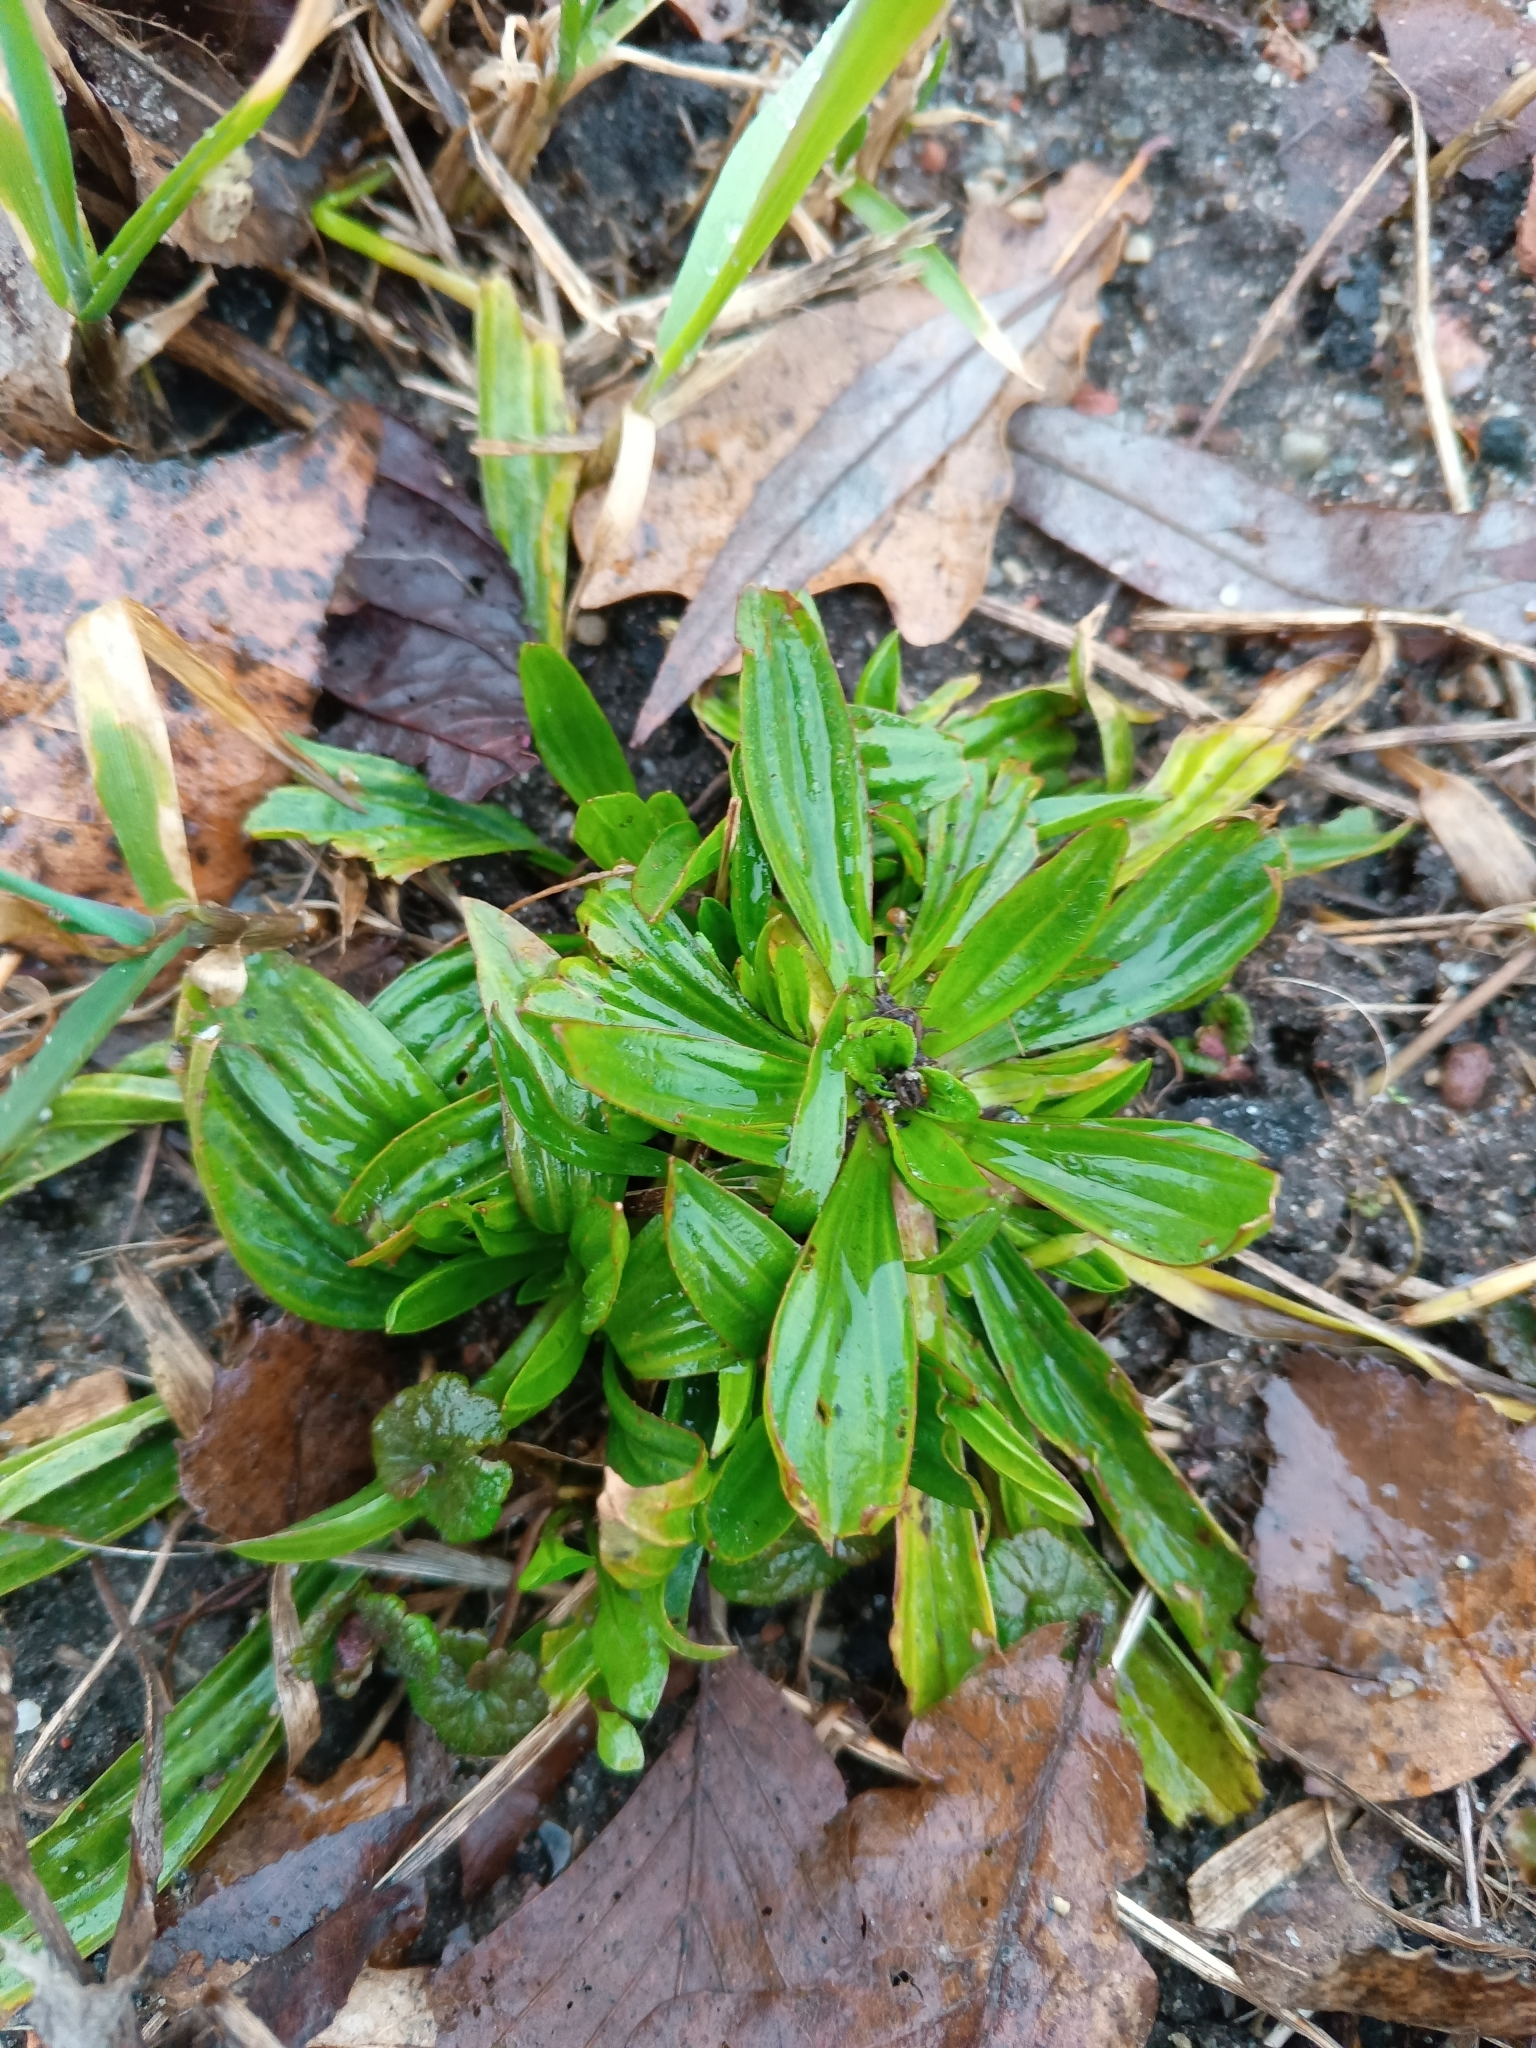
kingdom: Plantae
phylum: Tracheophyta
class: Magnoliopsida
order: Lamiales
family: Plantaginaceae
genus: Plantago
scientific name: Plantago lanceolata
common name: Ribwort plantain
